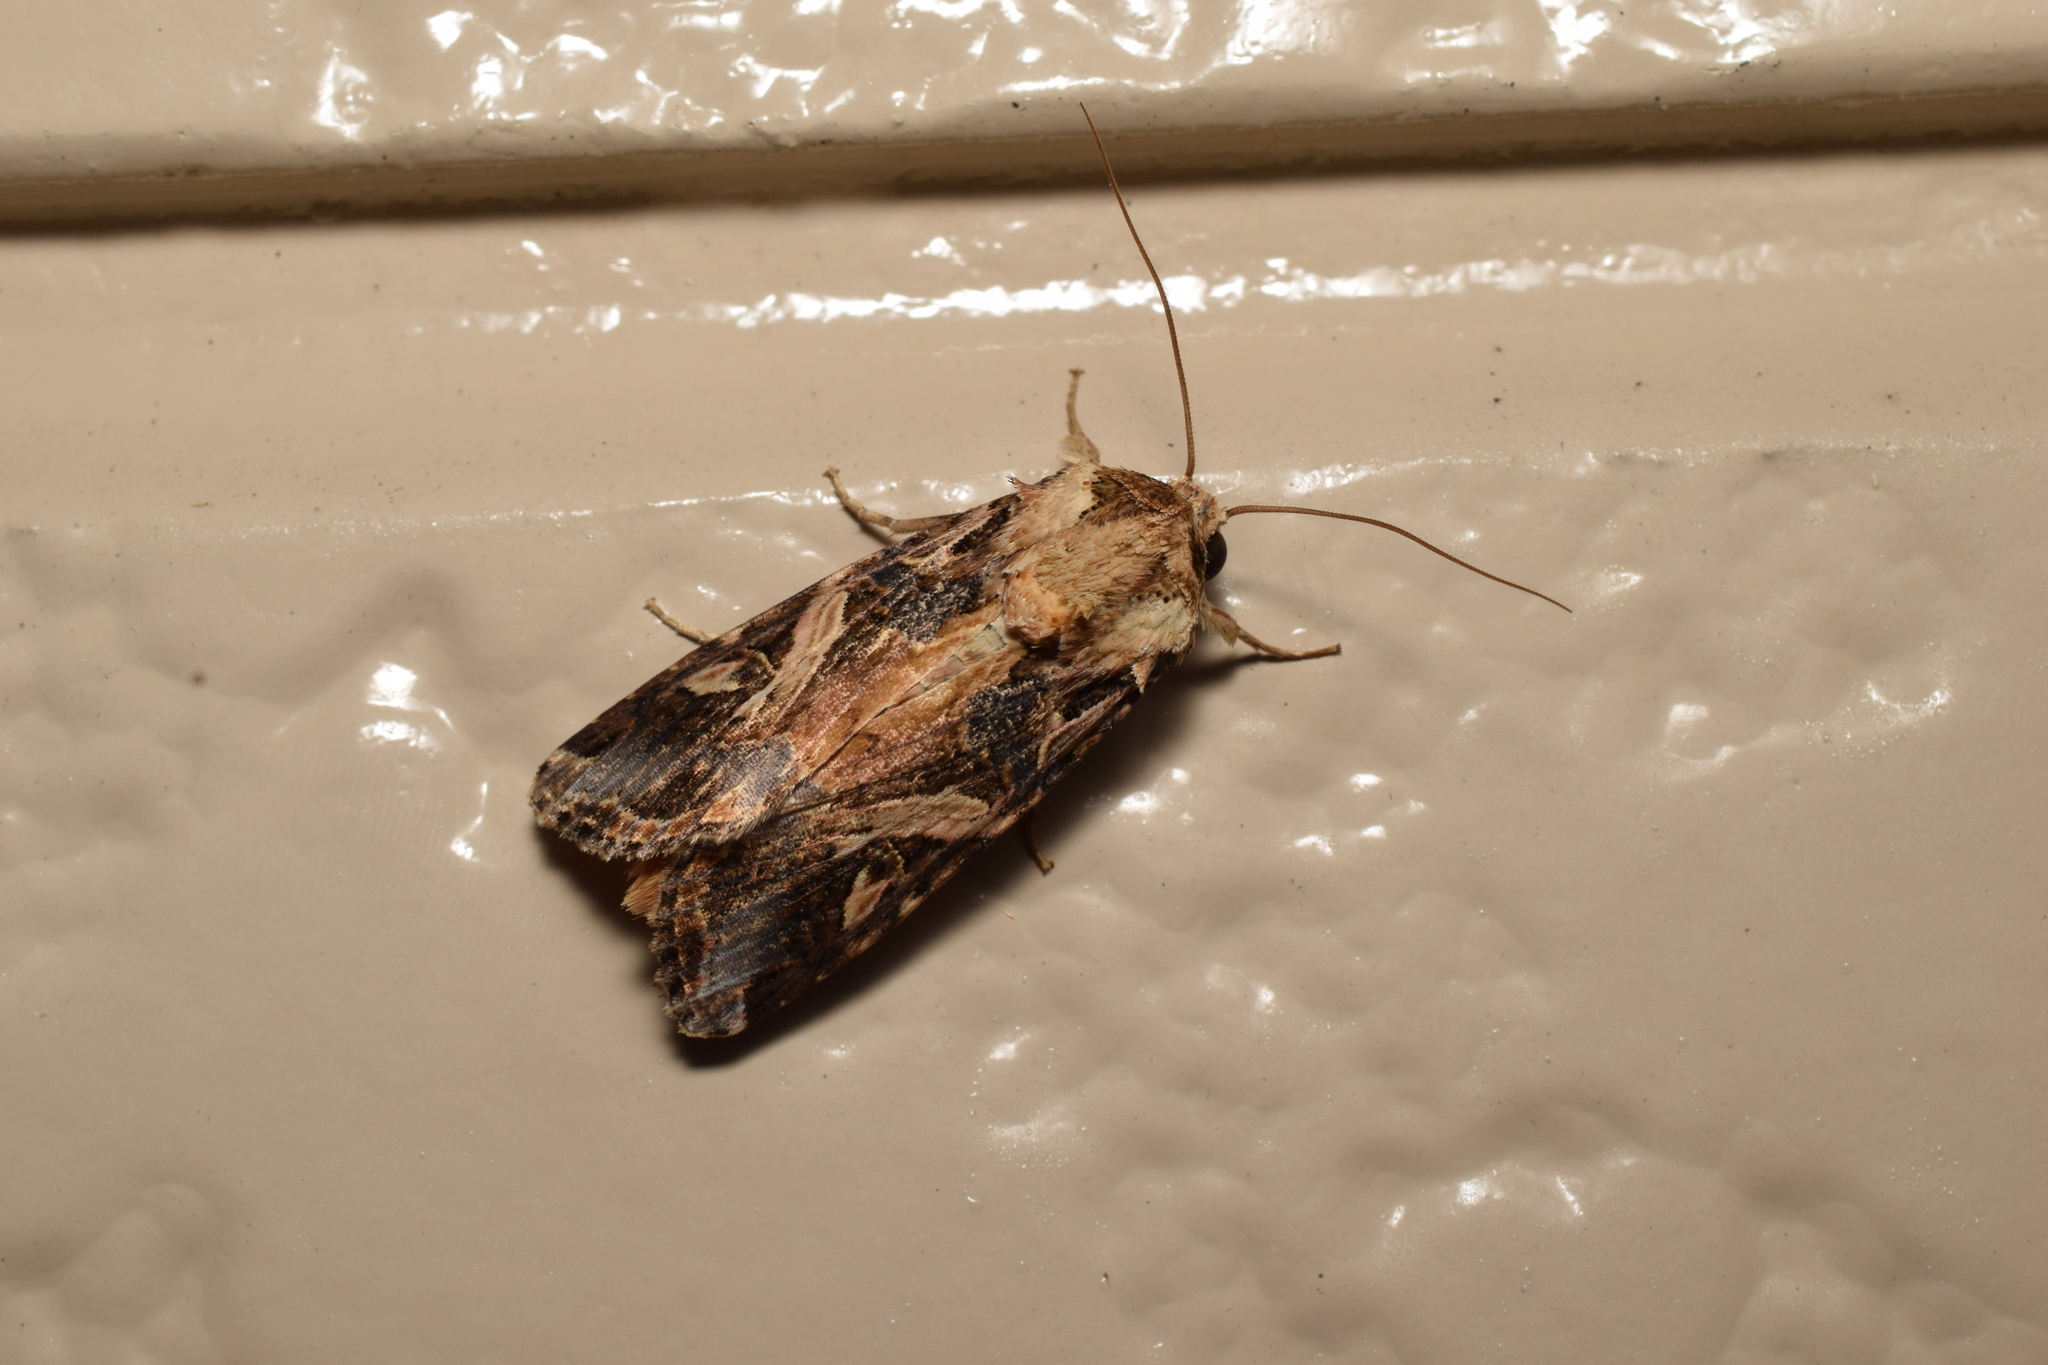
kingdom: Animalia
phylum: Arthropoda
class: Insecta
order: Lepidoptera
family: Noctuidae
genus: Spodoptera
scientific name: Spodoptera litura
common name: Asian cotton leafworm
